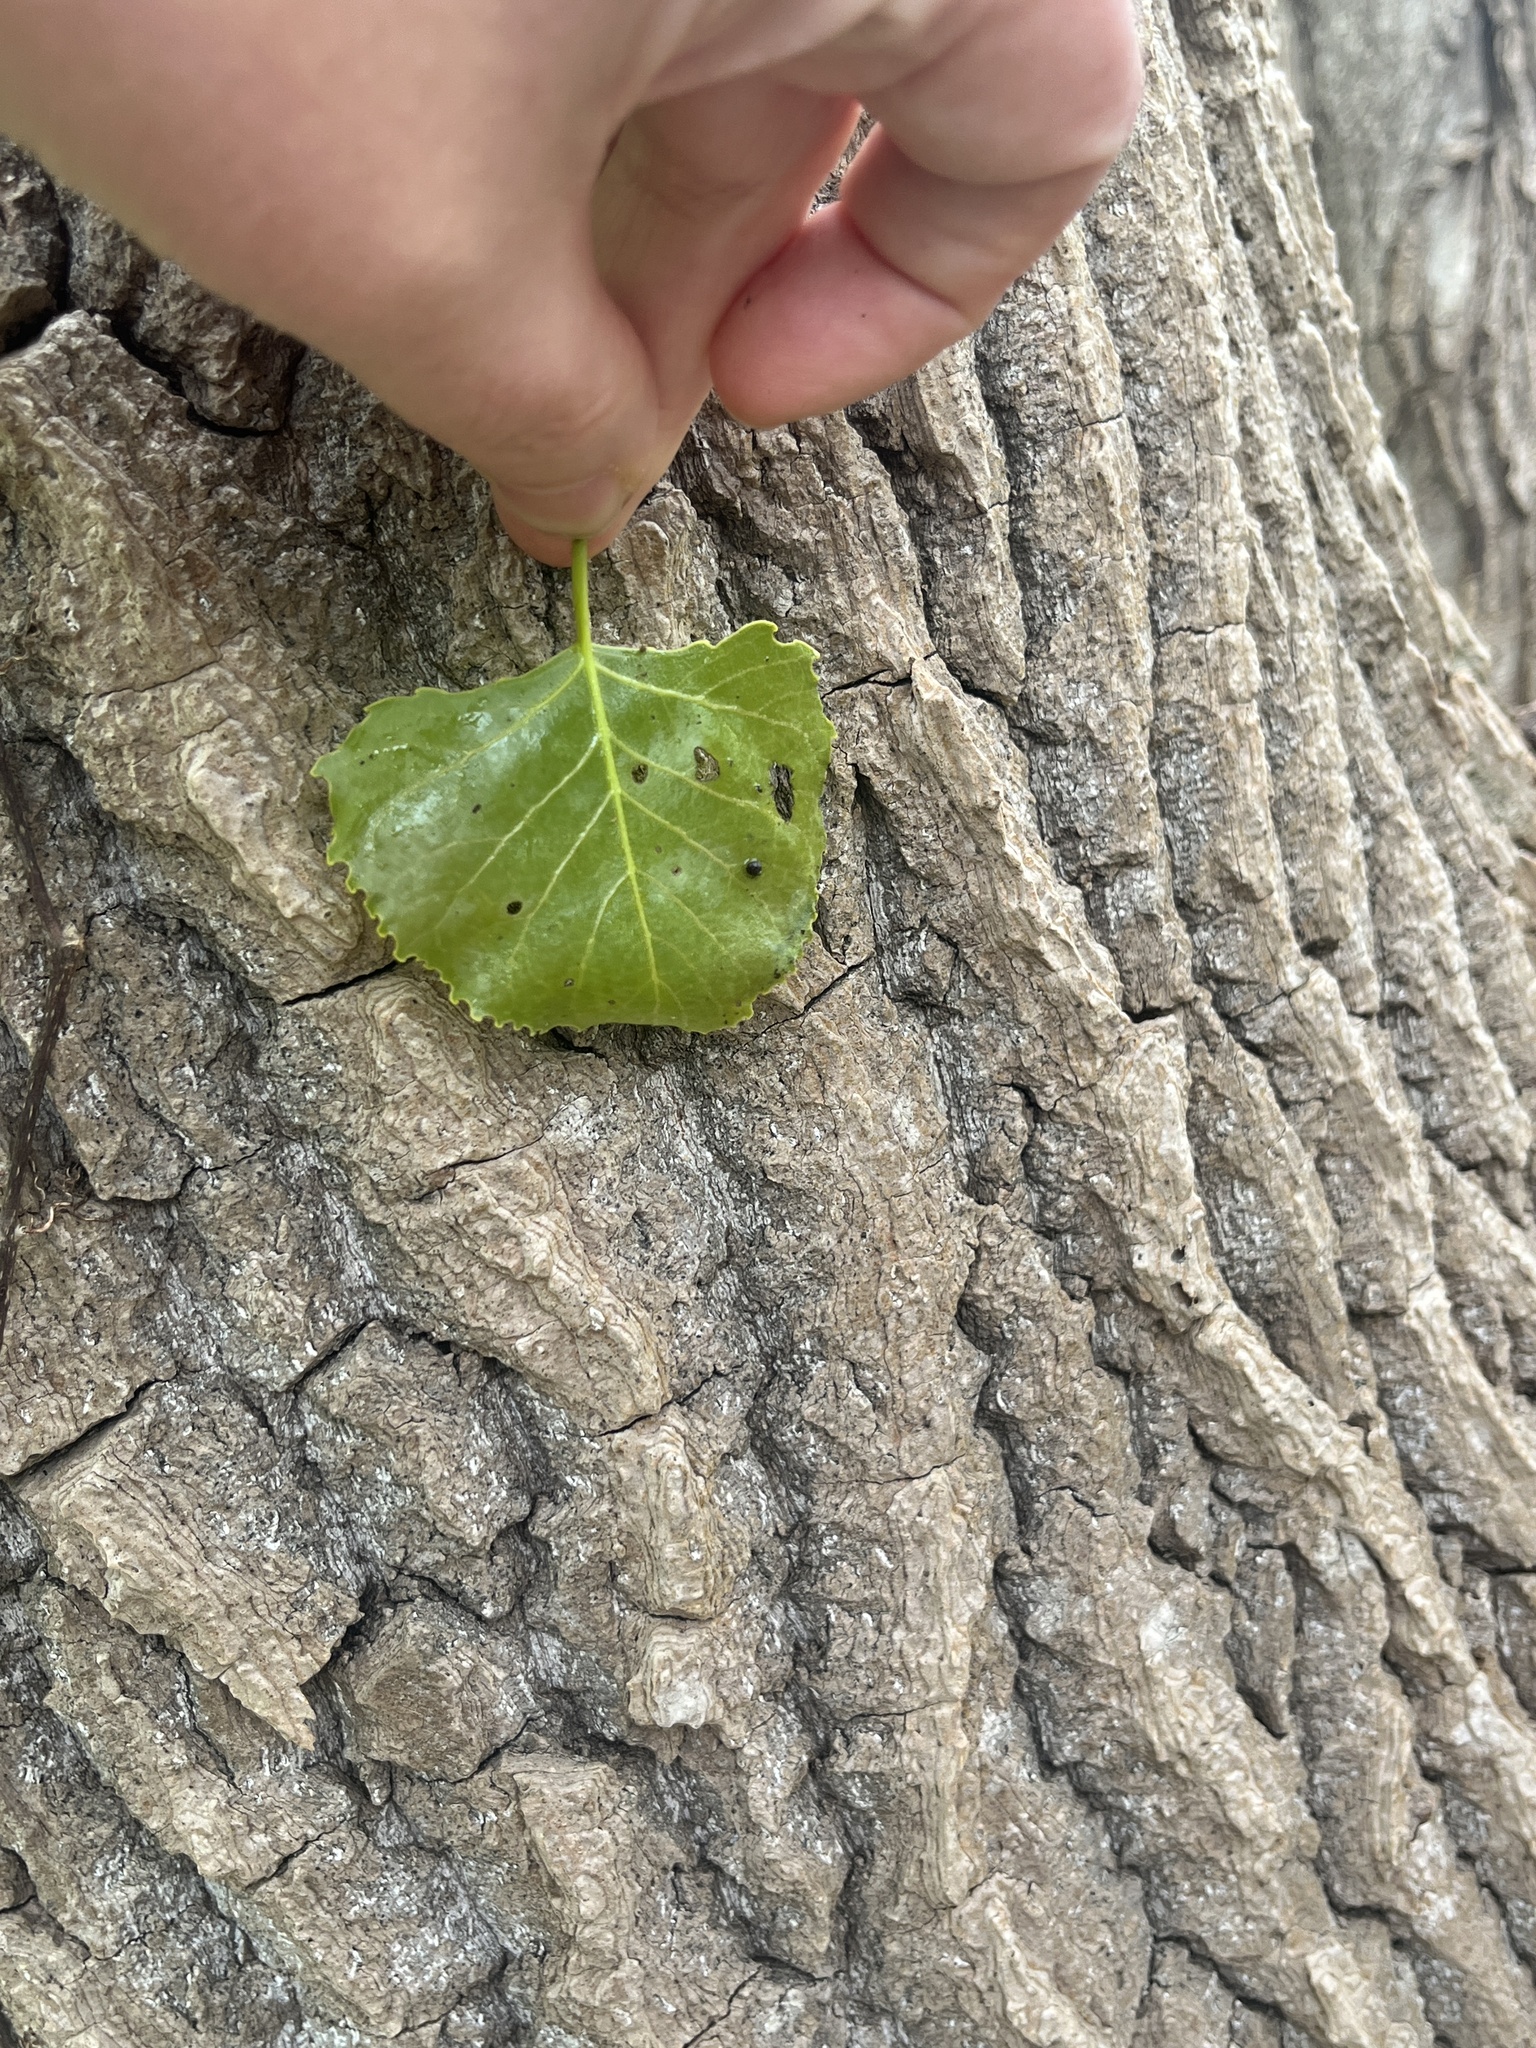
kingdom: Plantae
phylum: Tracheophyta
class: Magnoliopsida
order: Malpighiales
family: Salicaceae
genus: Populus
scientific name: Populus deltoides
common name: Eastern cottonwood
